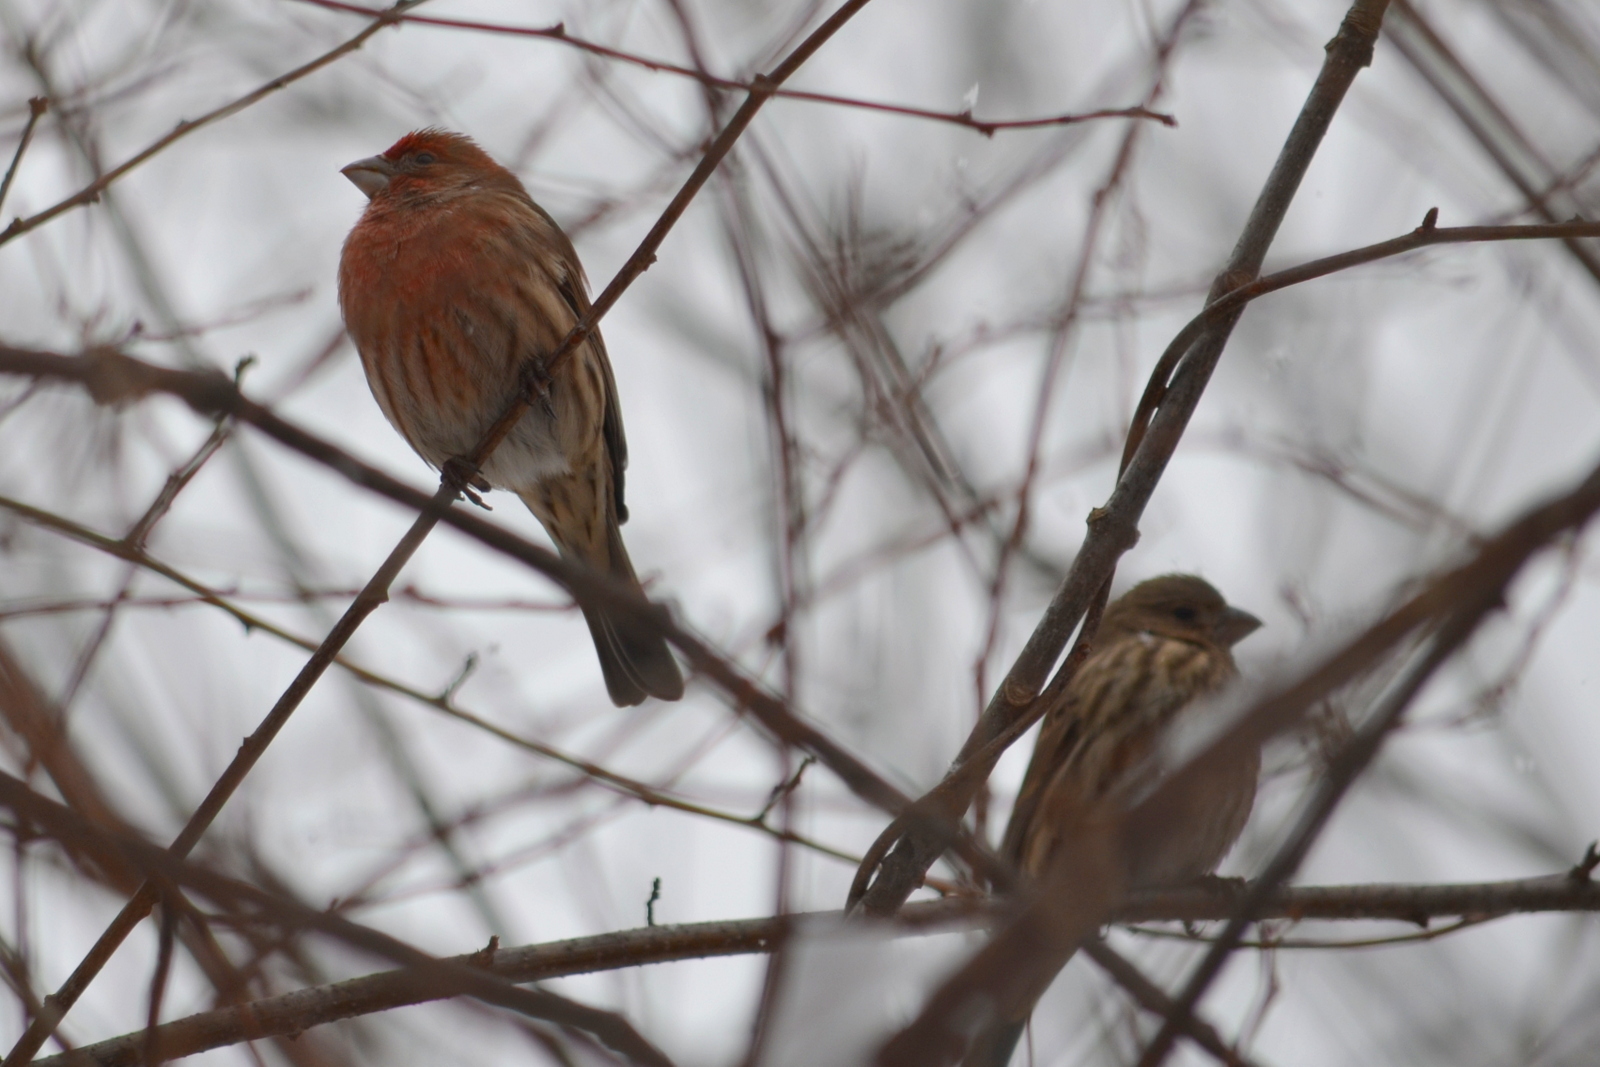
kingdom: Animalia
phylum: Chordata
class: Aves
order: Passeriformes
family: Fringillidae
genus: Haemorhous
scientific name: Haemorhous mexicanus
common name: House finch
